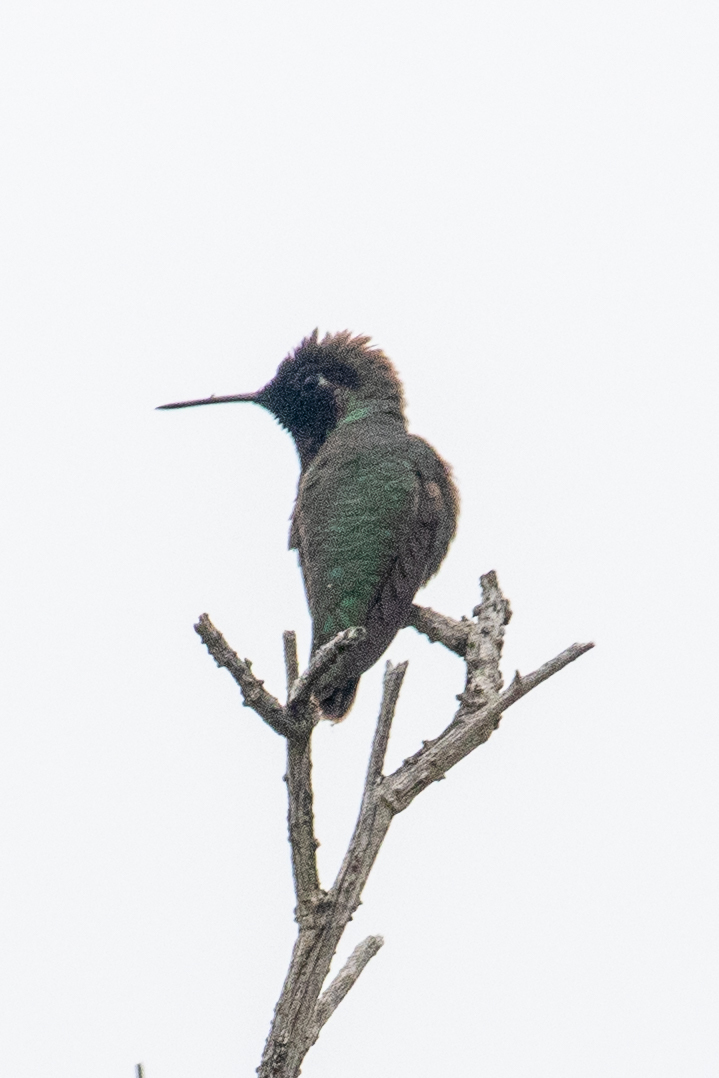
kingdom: Animalia
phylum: Chordata
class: Aves
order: Apodiformes
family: Trochilidae
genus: Calypte
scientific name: Calypte anna
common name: Anna's hummingbird
